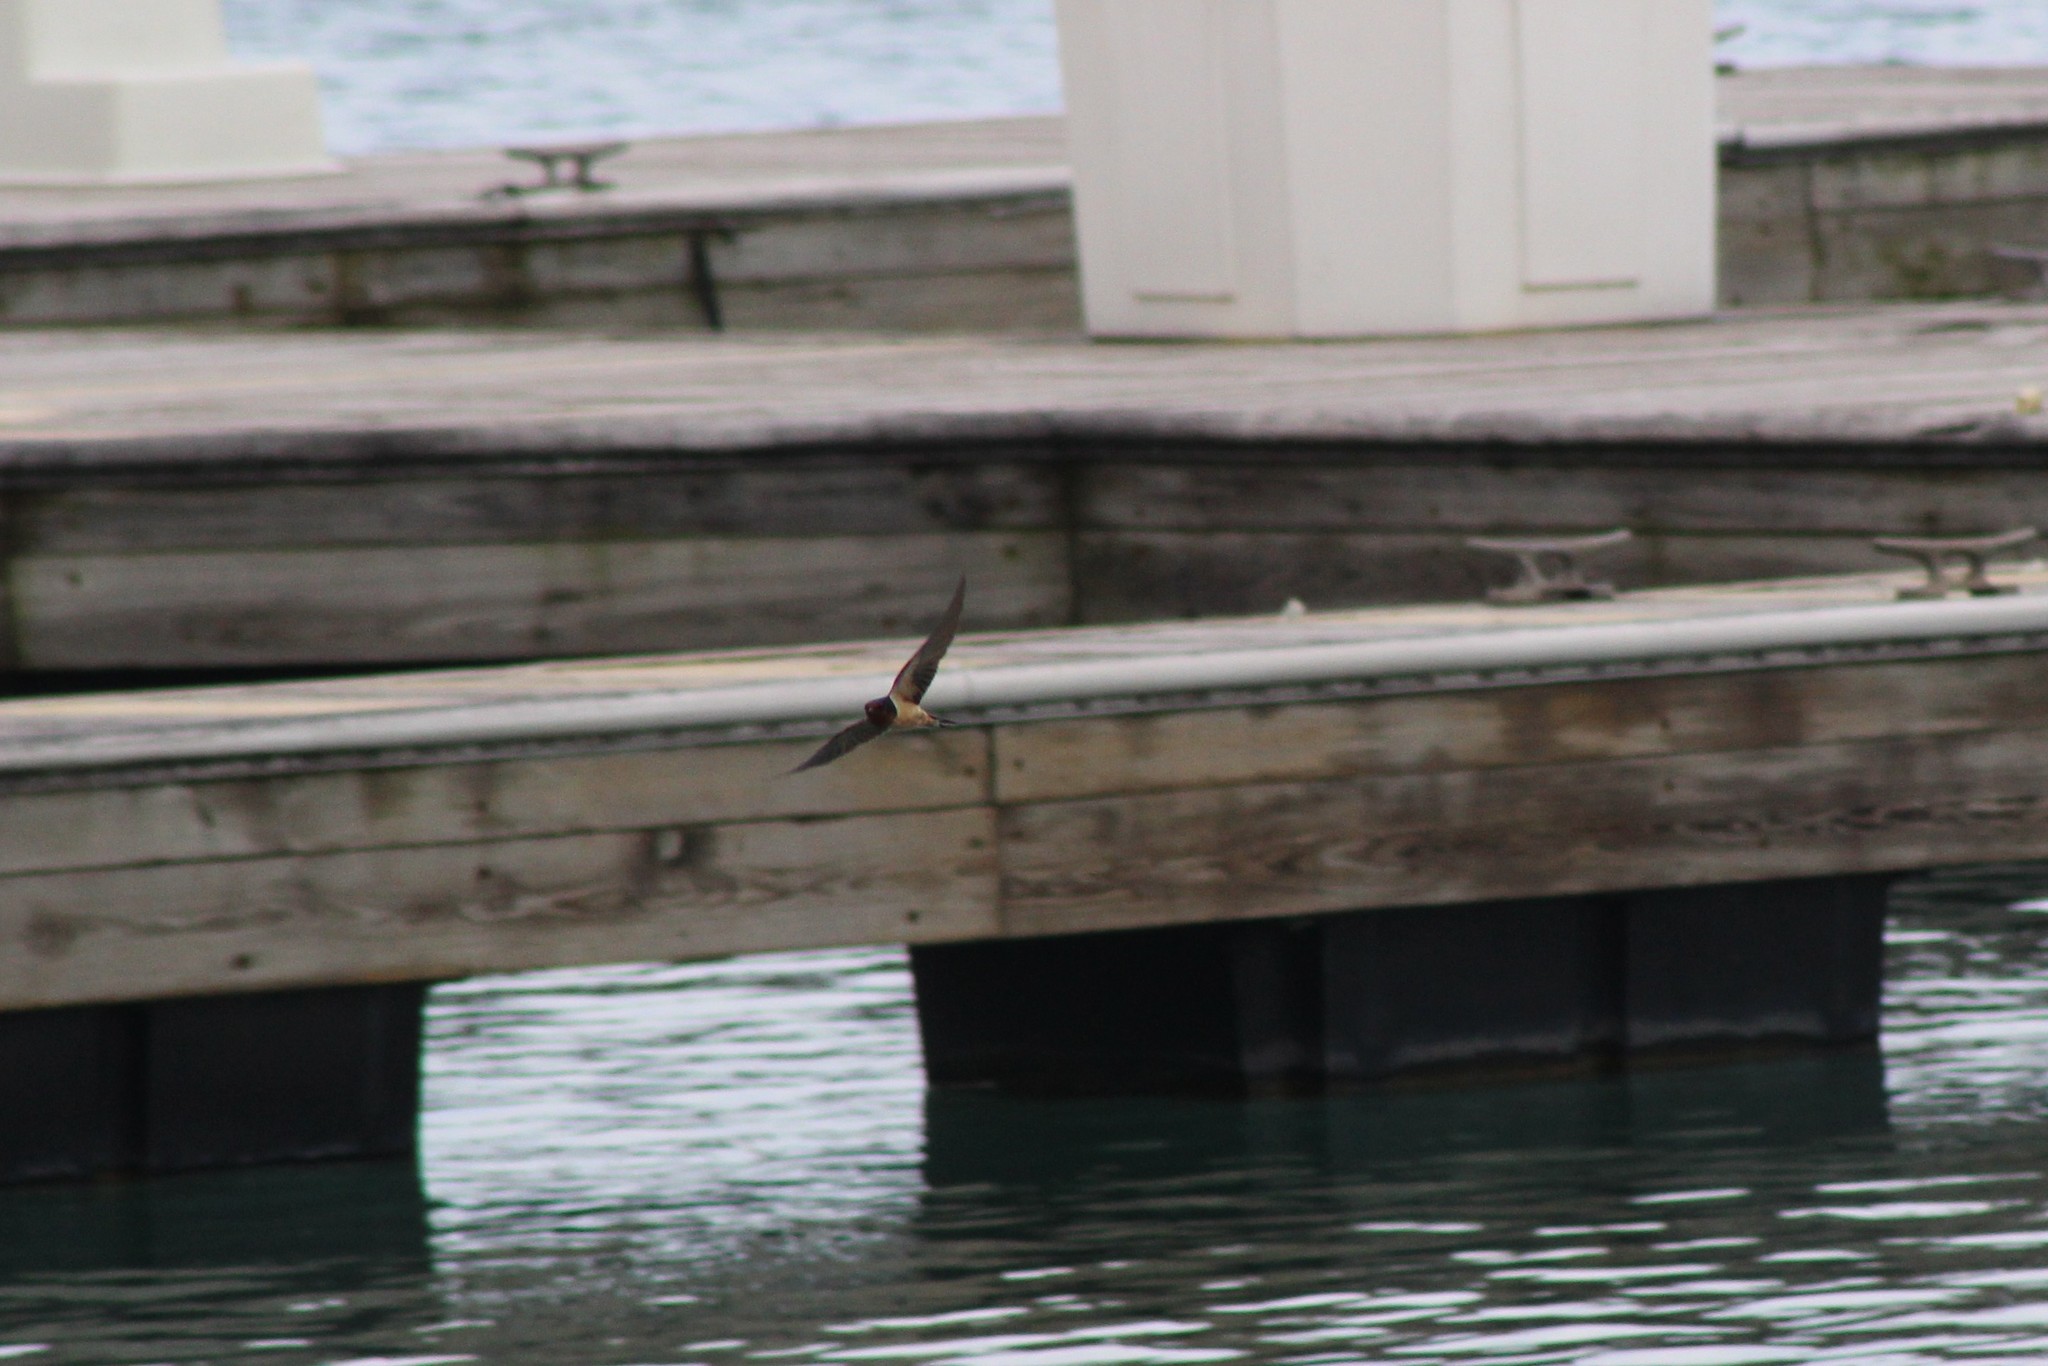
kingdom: Animalia
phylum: Chordata
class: Aves
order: Passeriformes
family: Hirundinidae
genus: Hirundo
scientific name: Hirundo rustica
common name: Barn swallow
